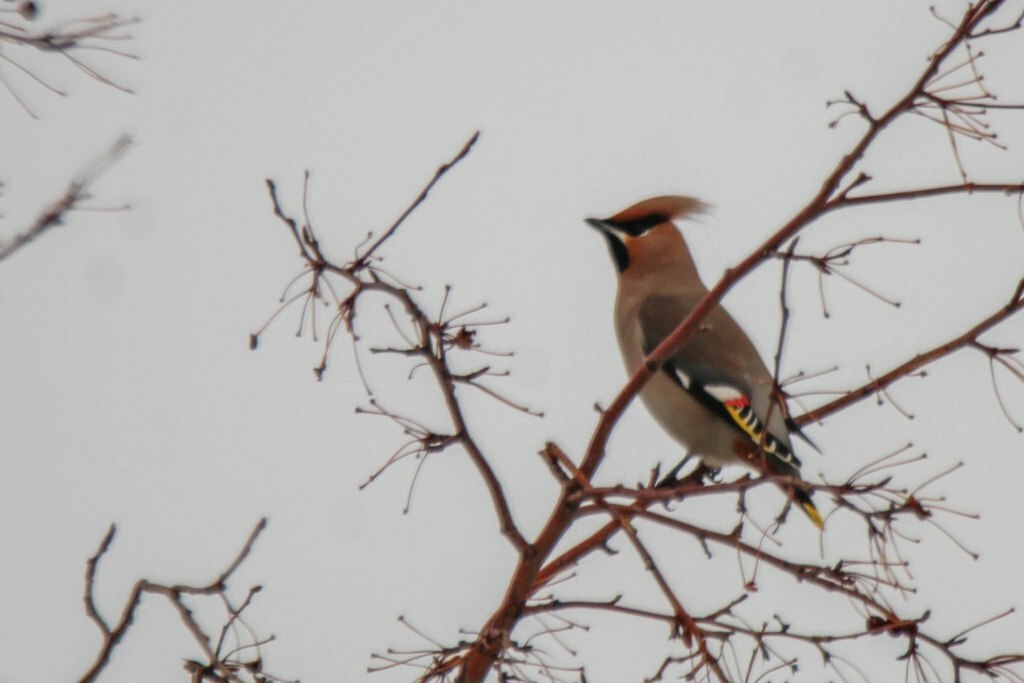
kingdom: Animalia
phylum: Chordata
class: Aves
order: Passeriformes
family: Bombycillidae
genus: Bombycilla
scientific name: Bombycilla garrulus
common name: Bohemian waxwing
